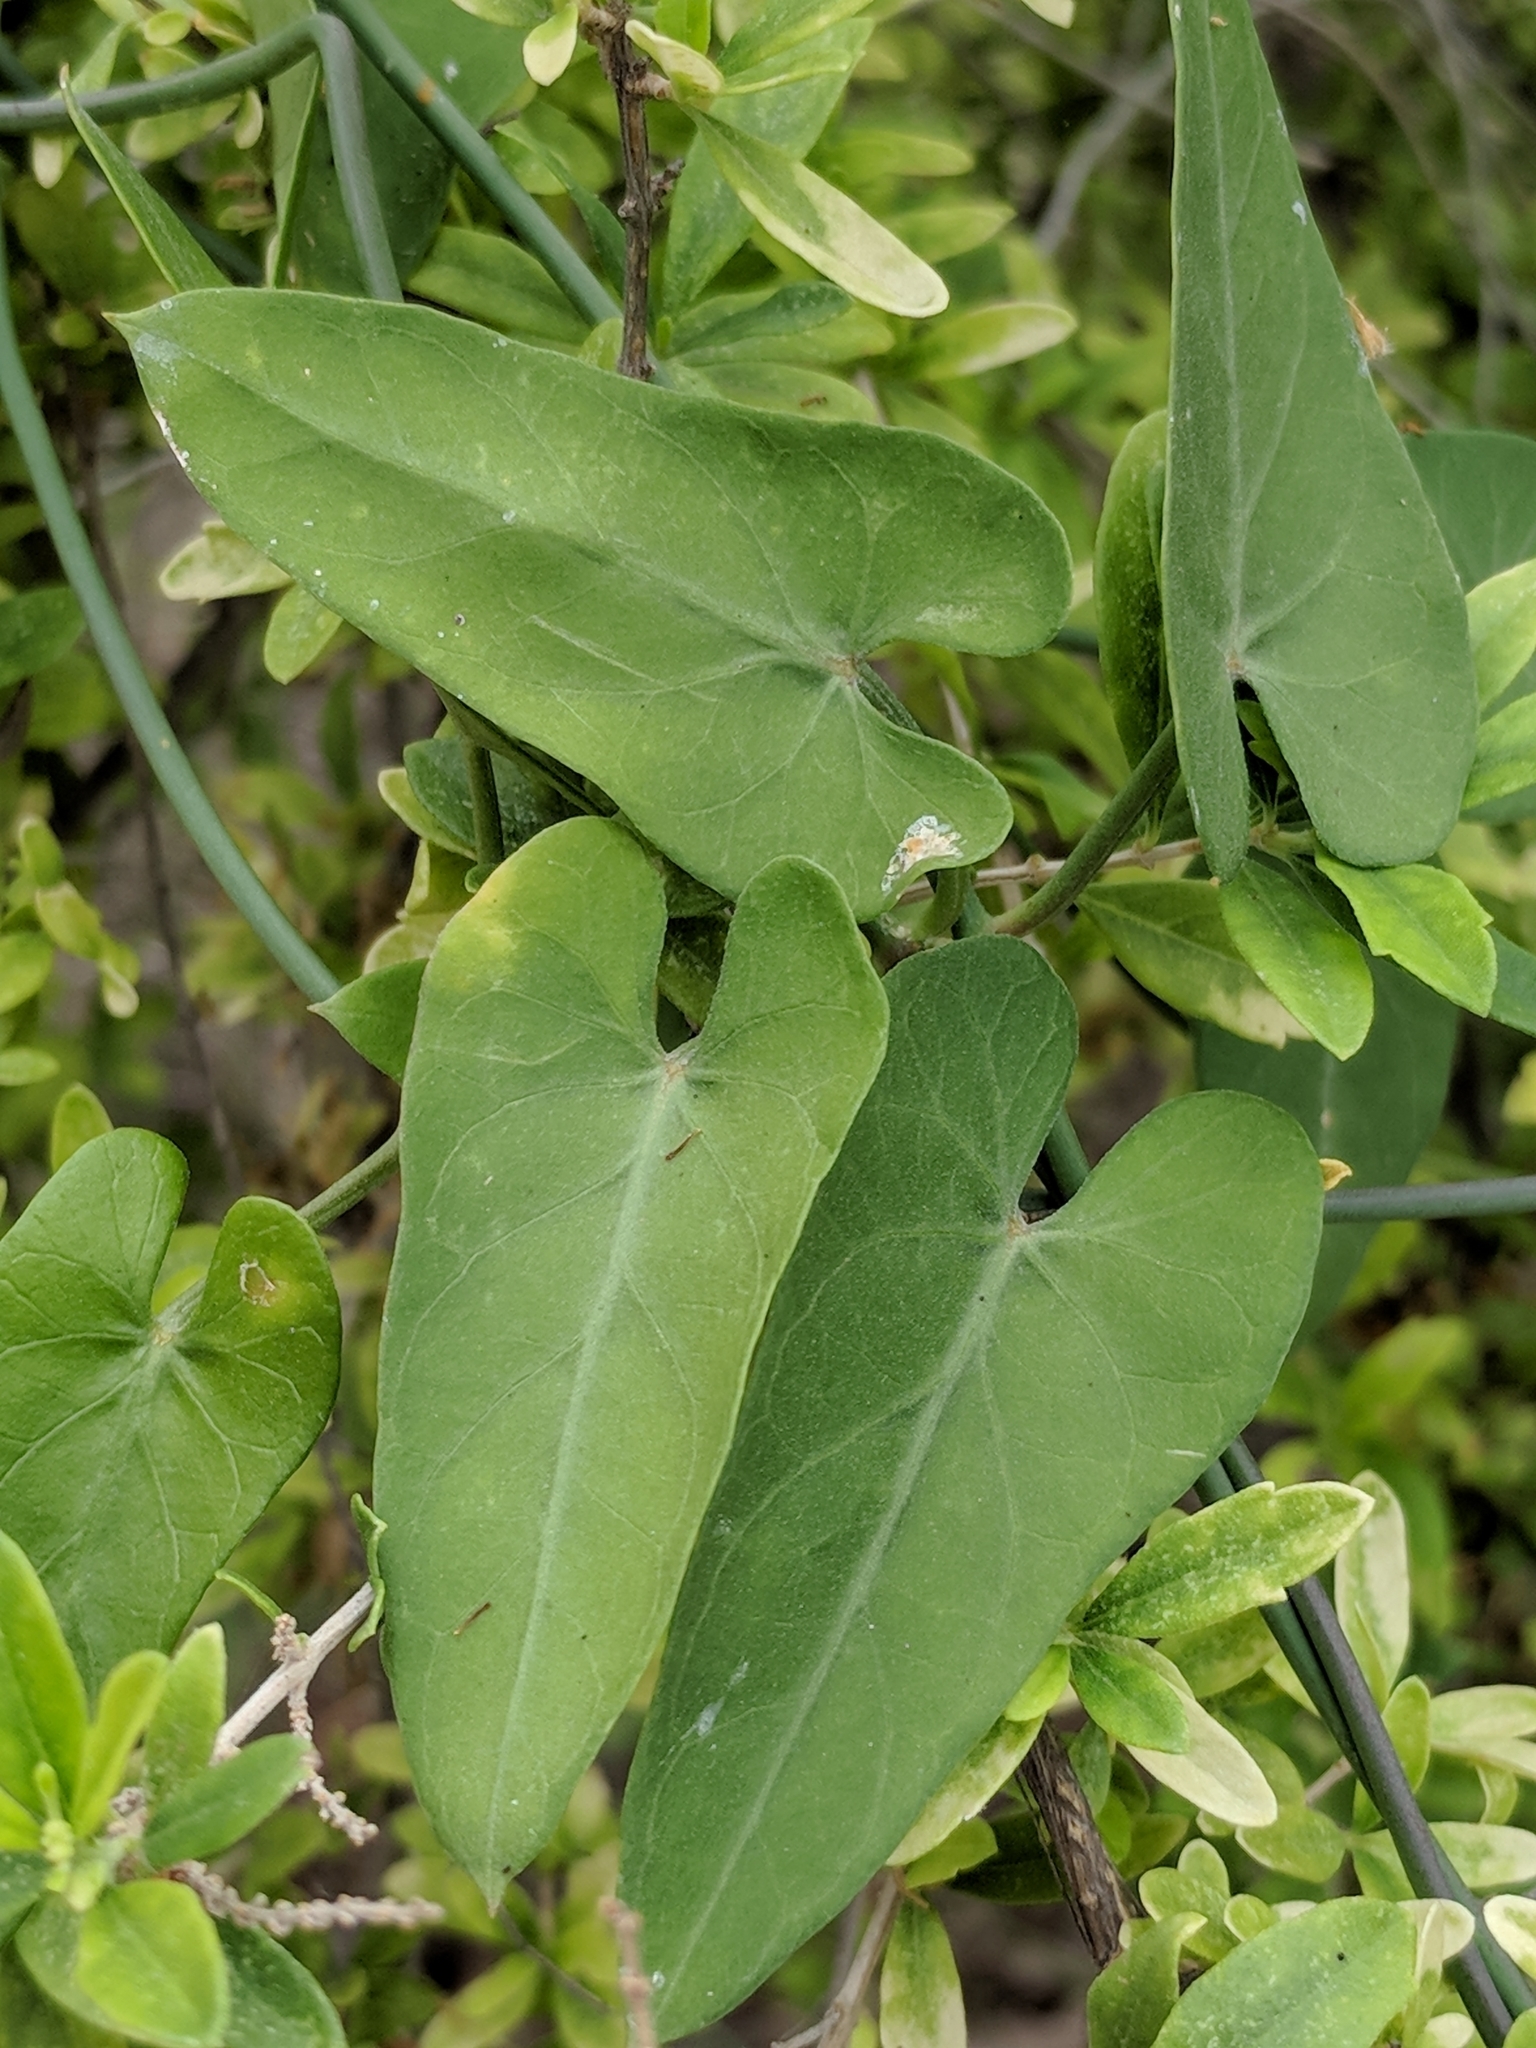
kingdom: Plantae
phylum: Tracheophyta
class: Magnoliopsida
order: Gentianales
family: Apocynaceae
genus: Funastrum
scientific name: Funastrum cynanchoides
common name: Climbing-milkweed
